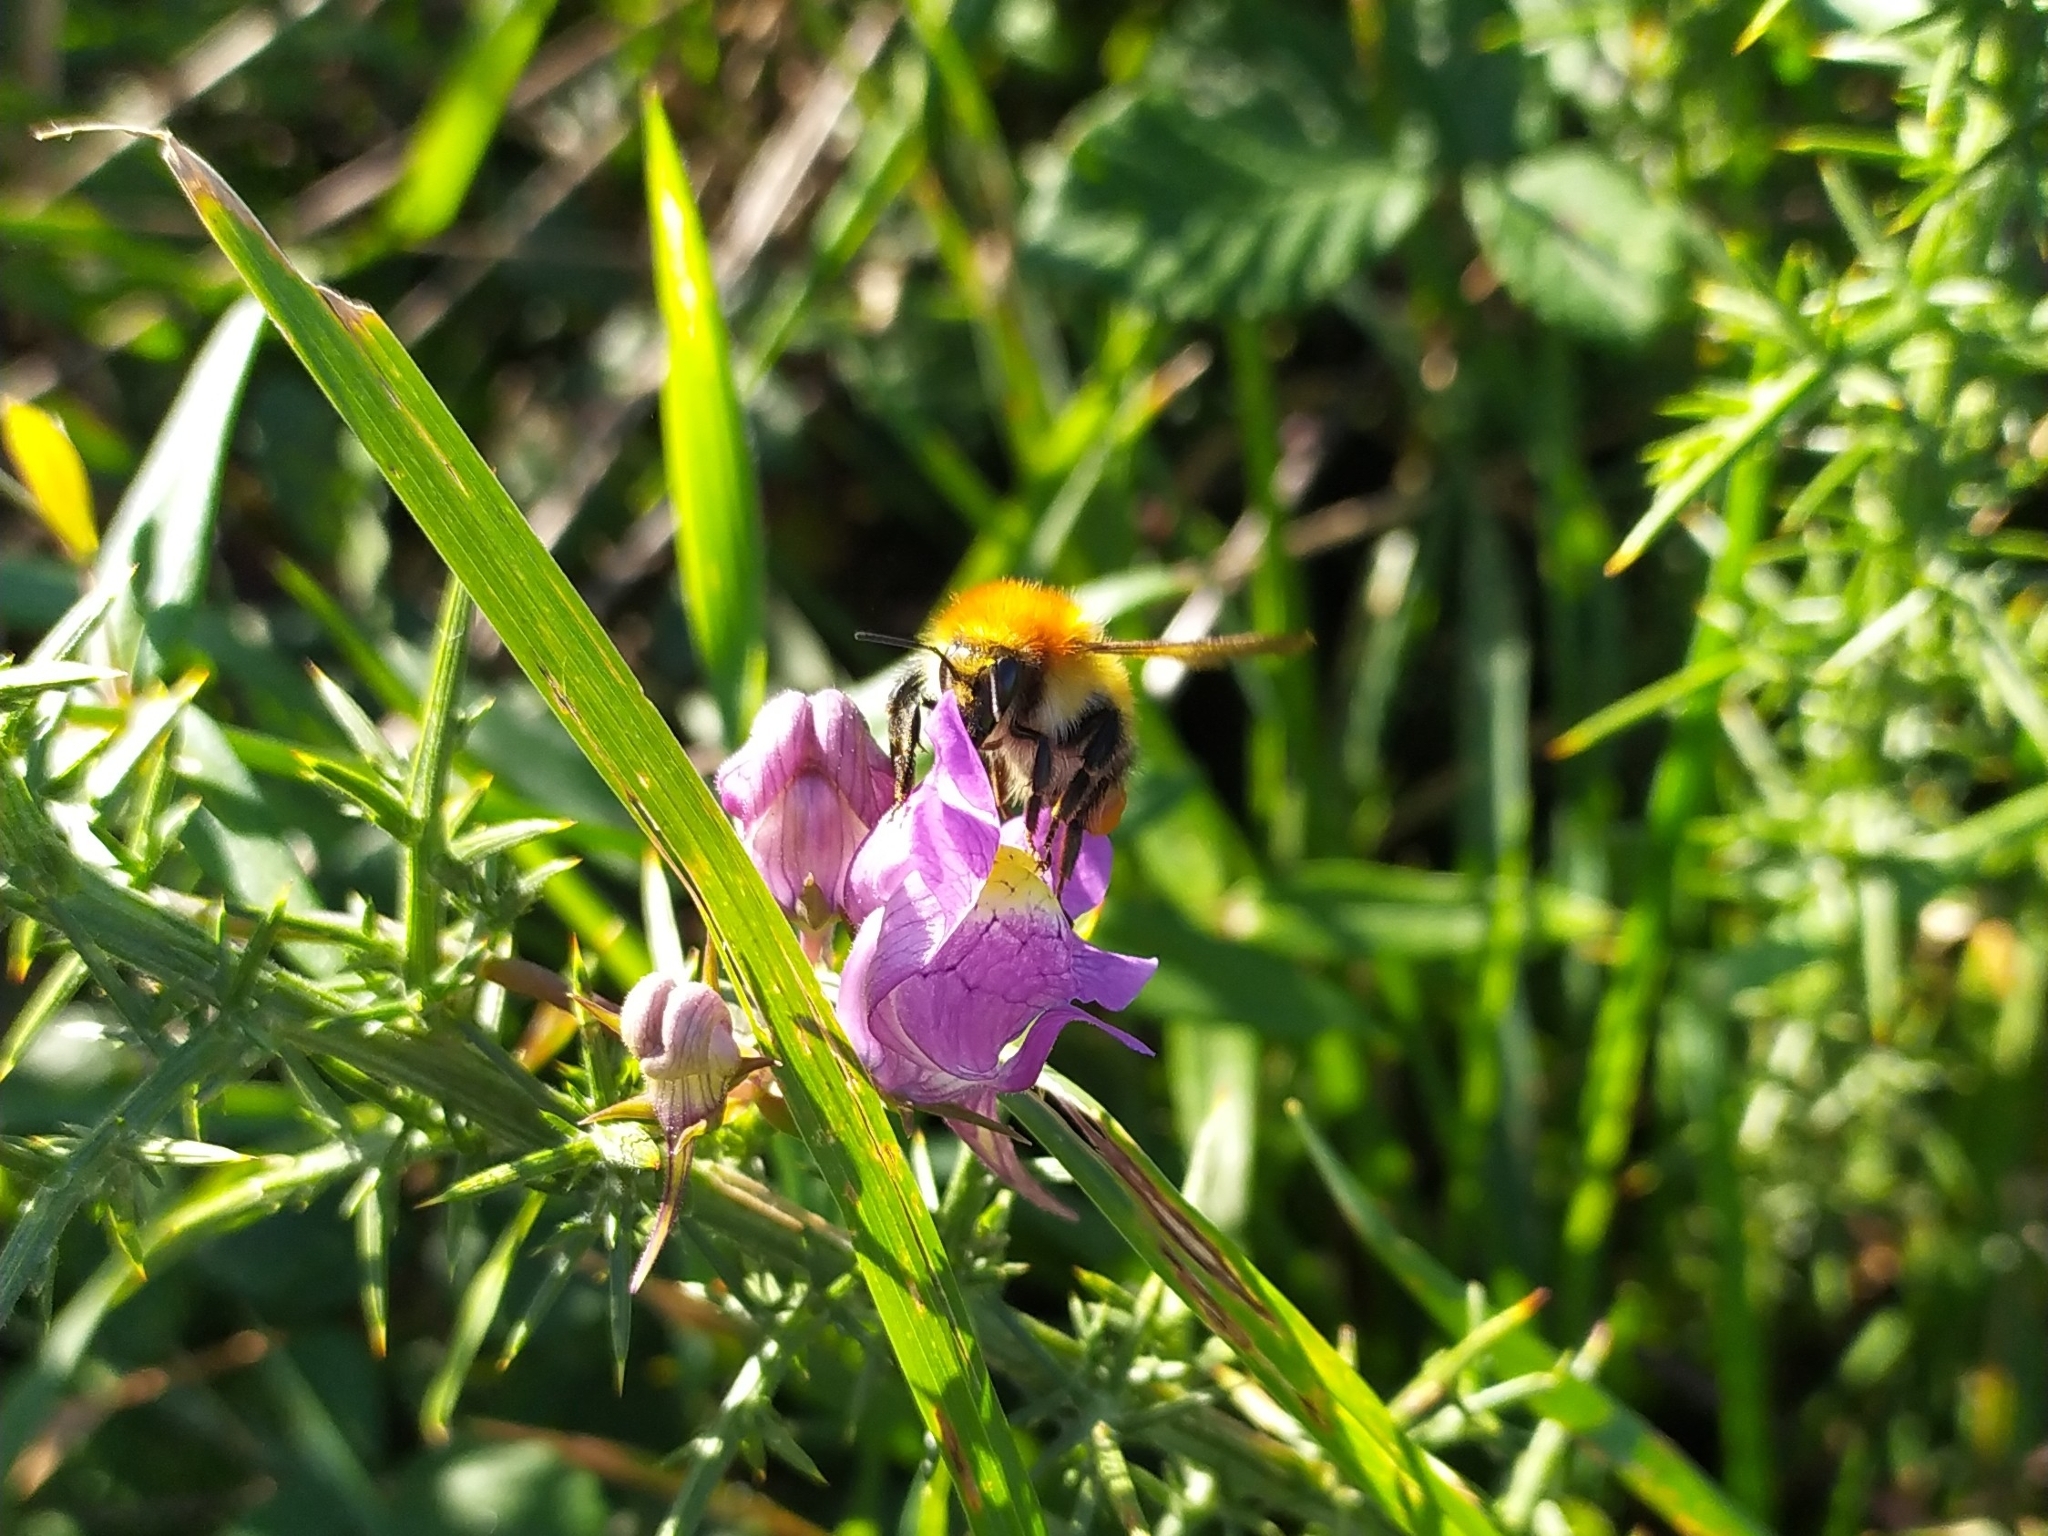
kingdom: Animalia
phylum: Arthropoda
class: Insecta
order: Hymenoptera
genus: Thoracobombus
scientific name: Thoracobombus
